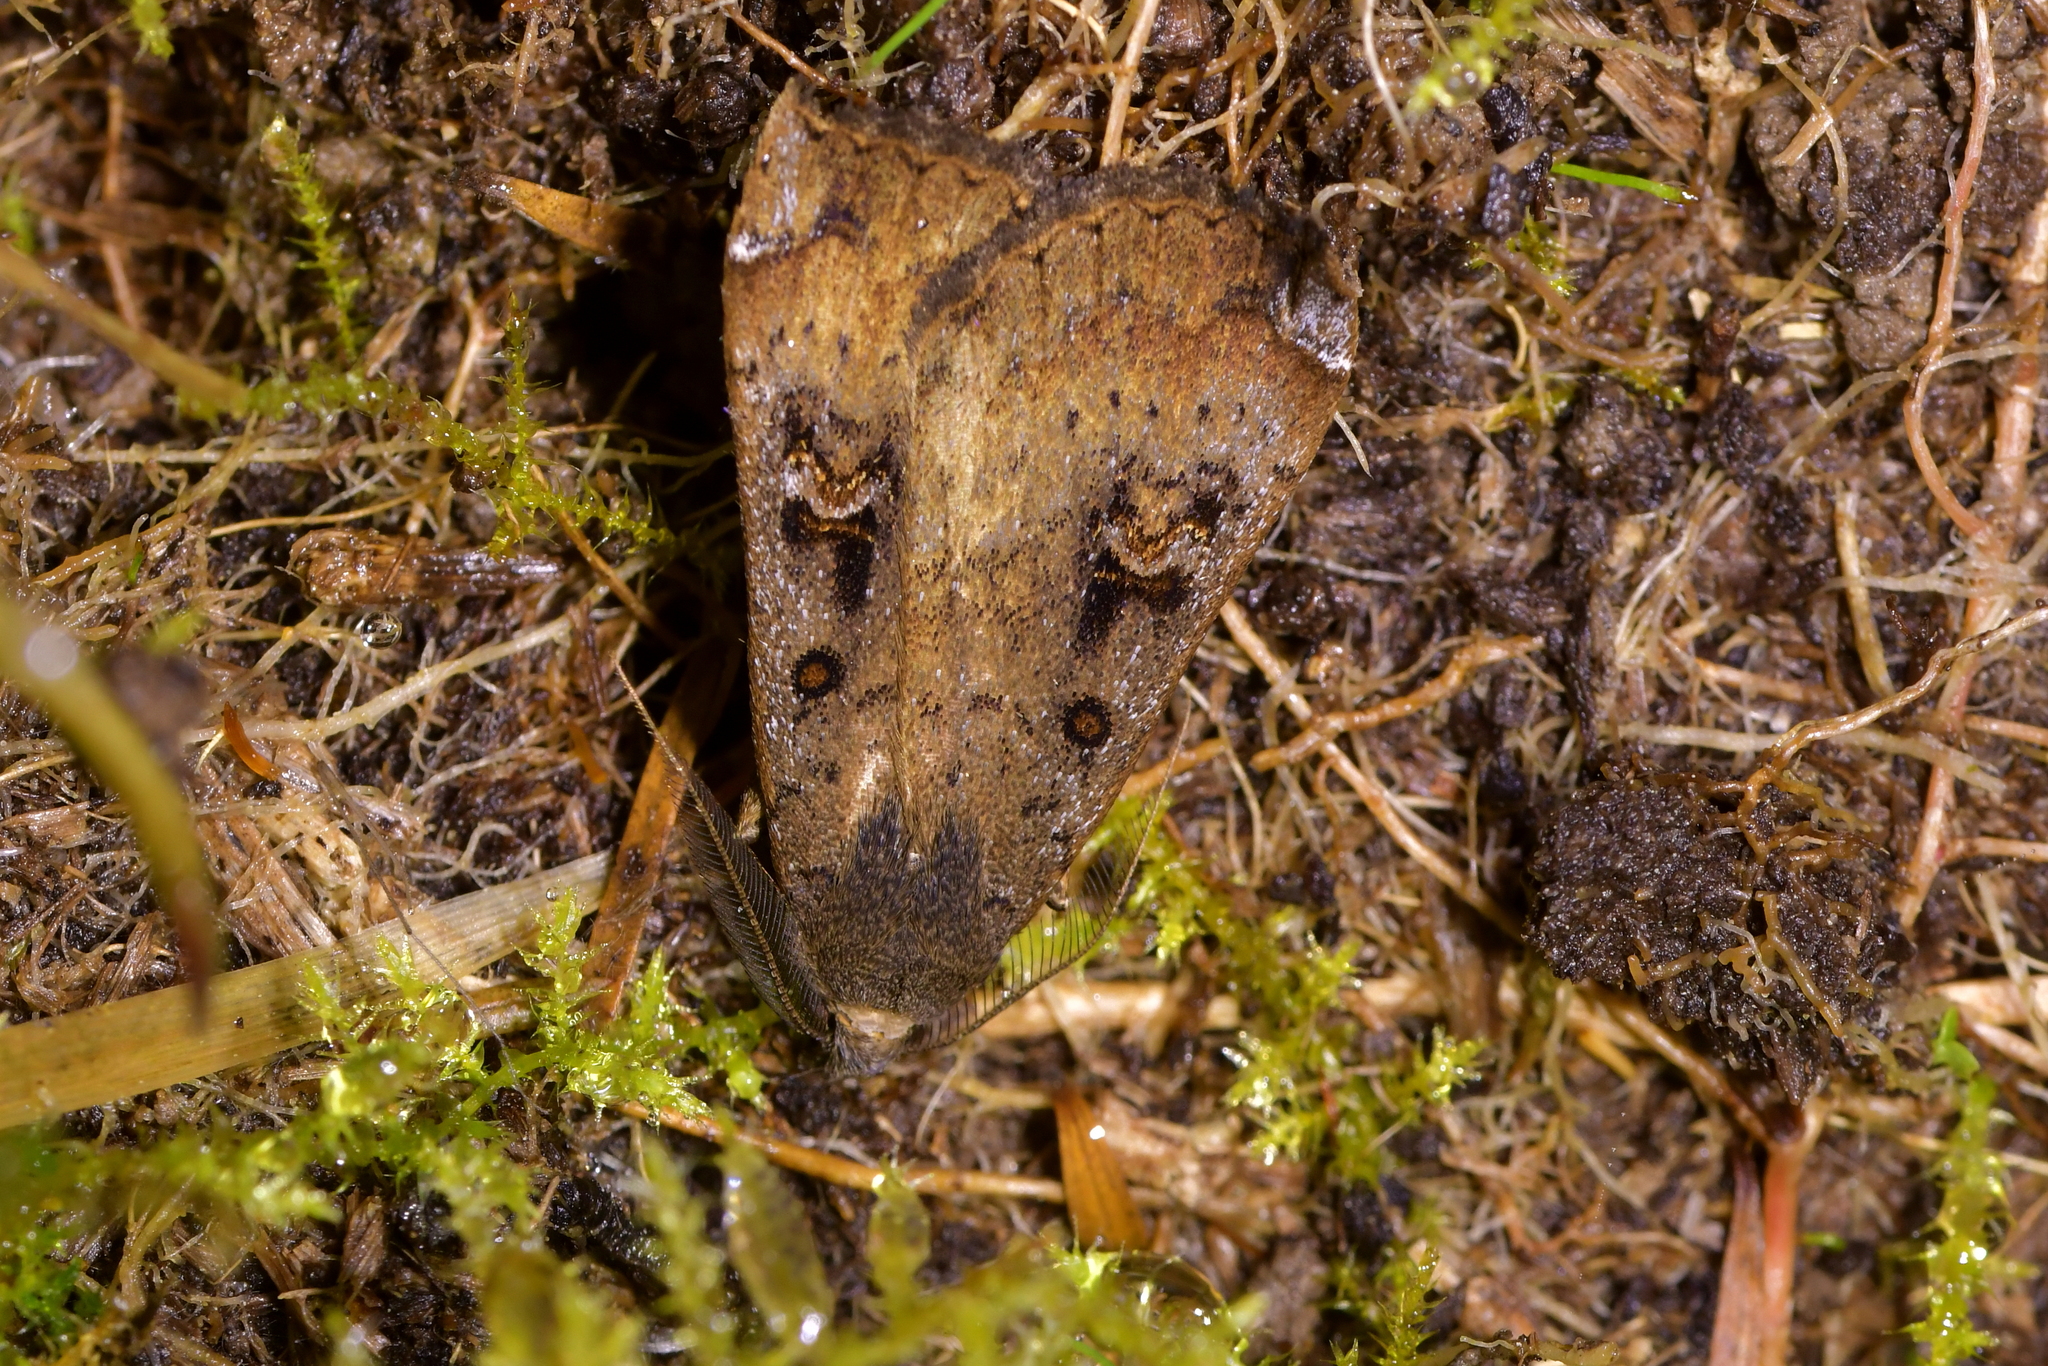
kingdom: Animalia
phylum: Arthropoda
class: Insecta
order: Lepidoptera
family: Erebidae
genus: Rhapsa
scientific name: Rhapsa scotosialis
